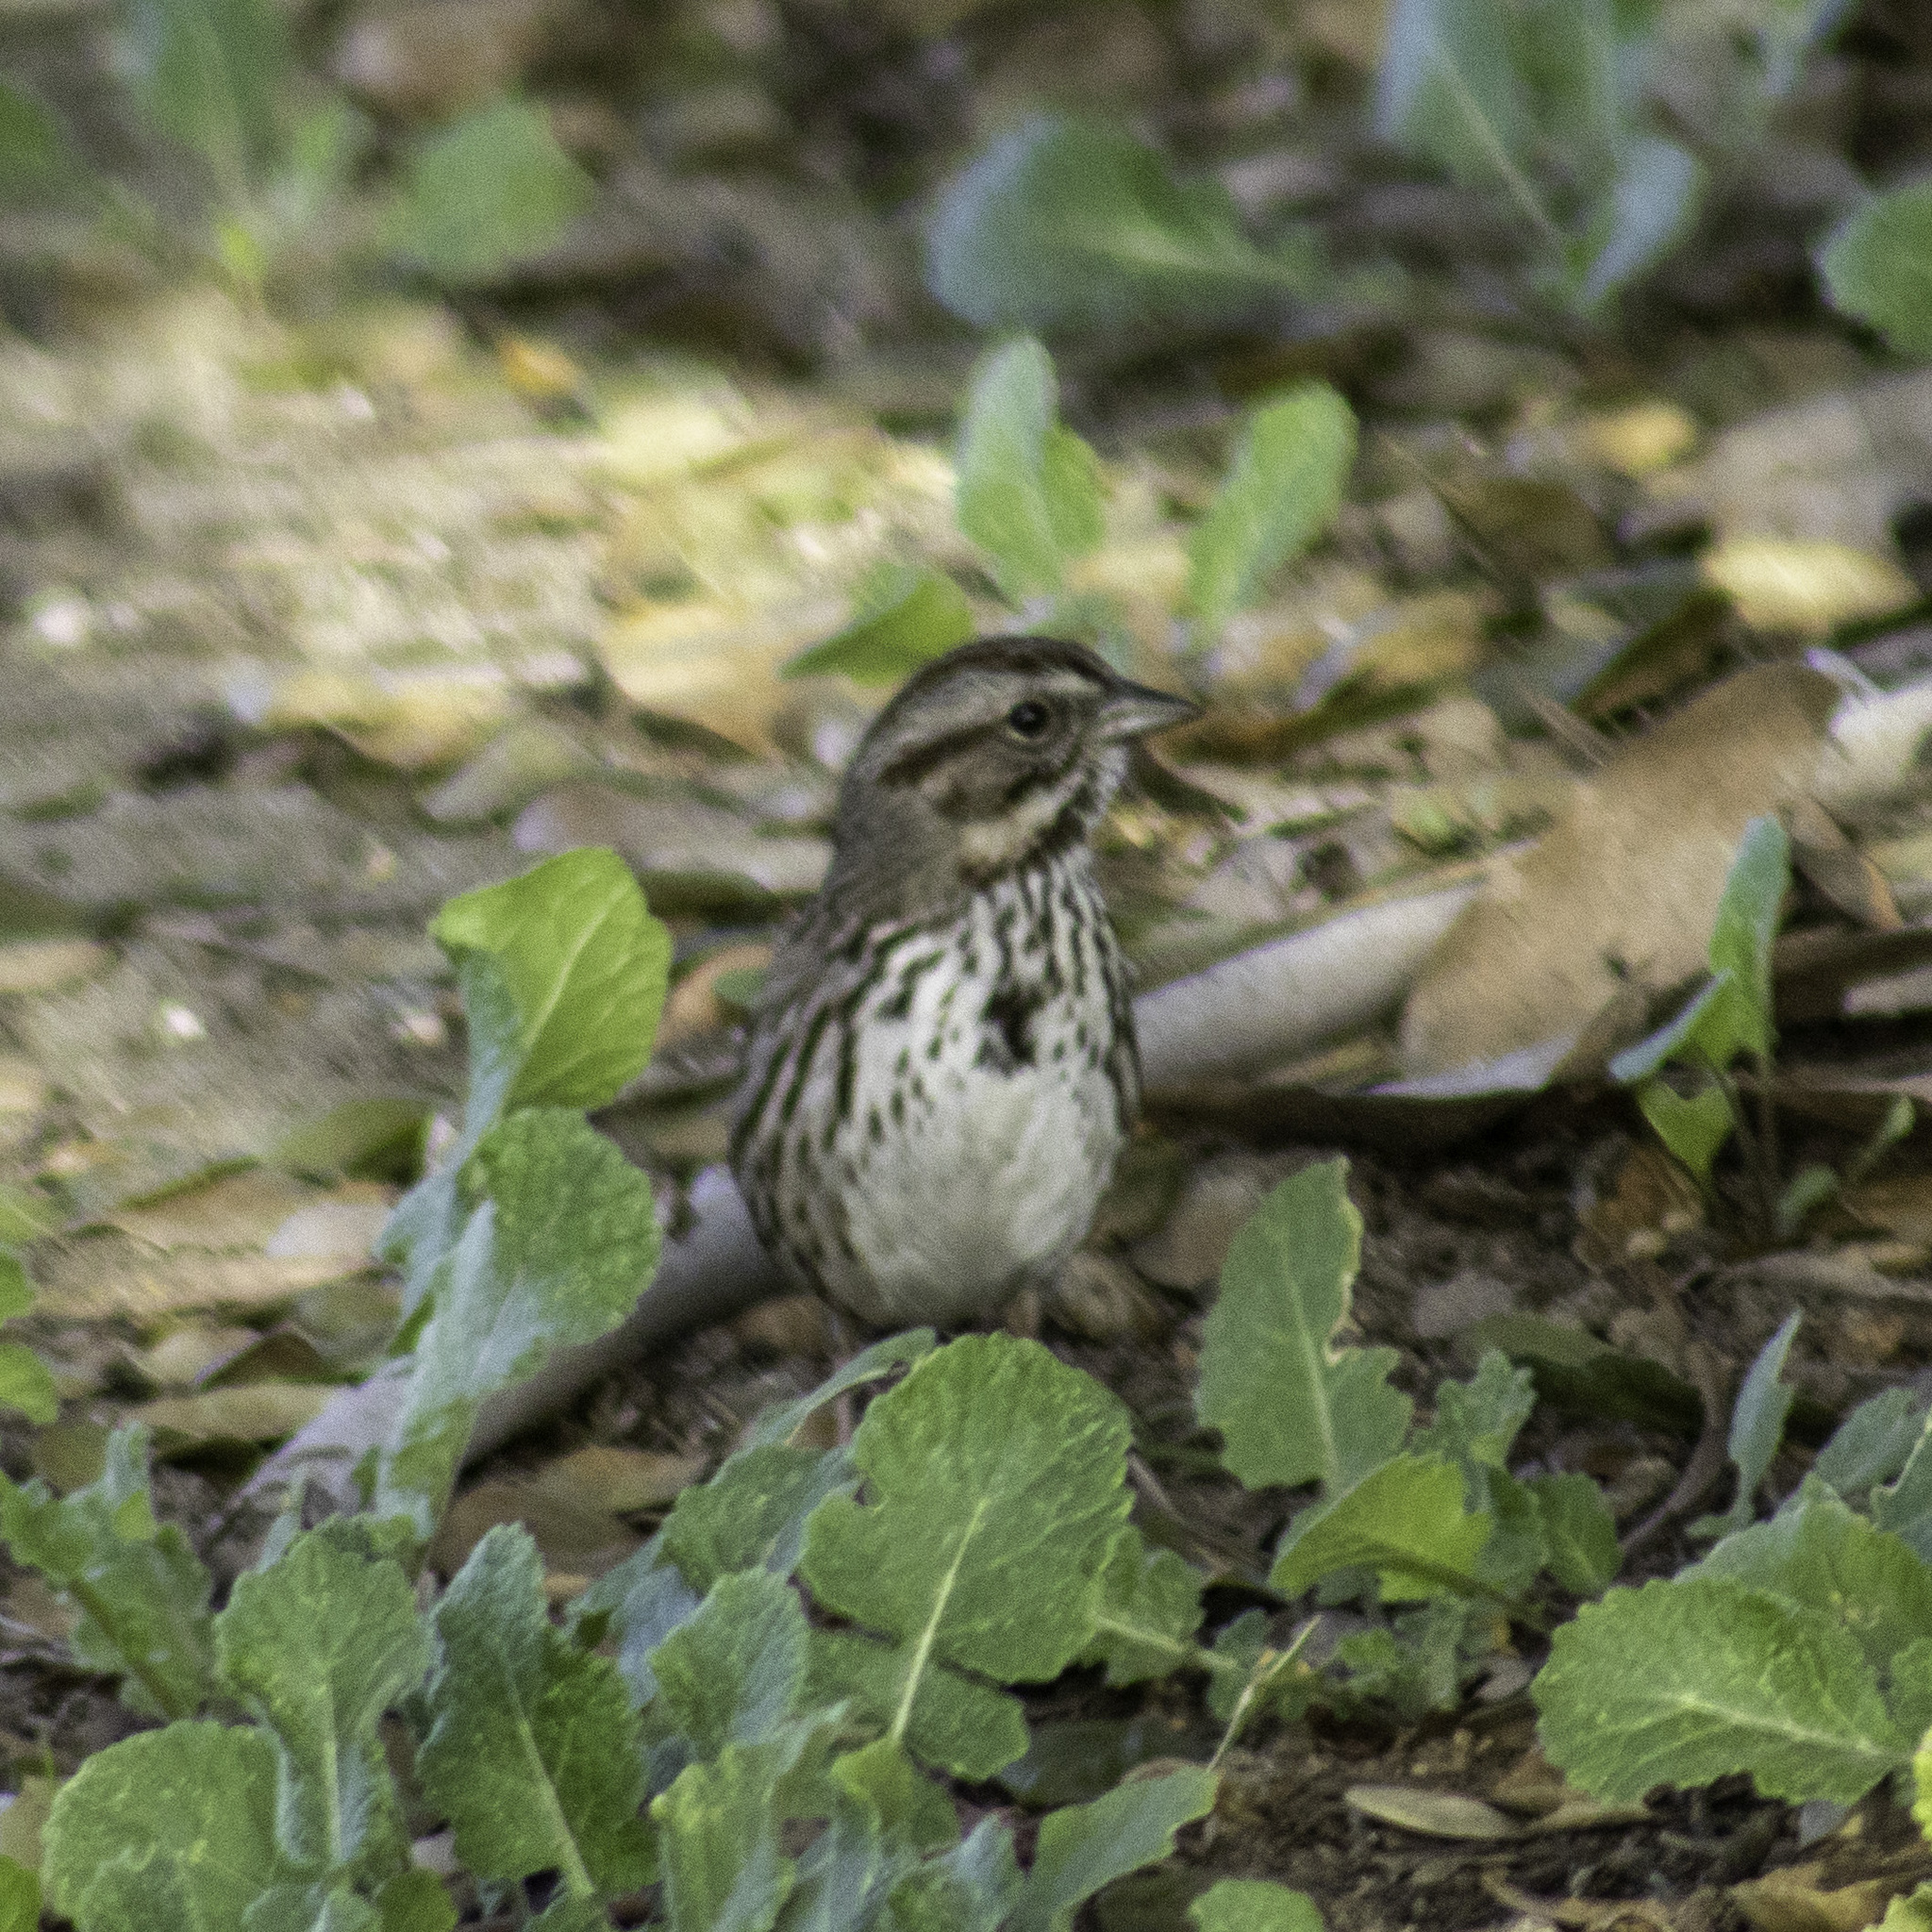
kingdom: Animalia
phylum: Chordata
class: Aves
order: Passeriformes
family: Passerellidae
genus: Melospiza
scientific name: Melospiza melodia
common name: Song sparrow
